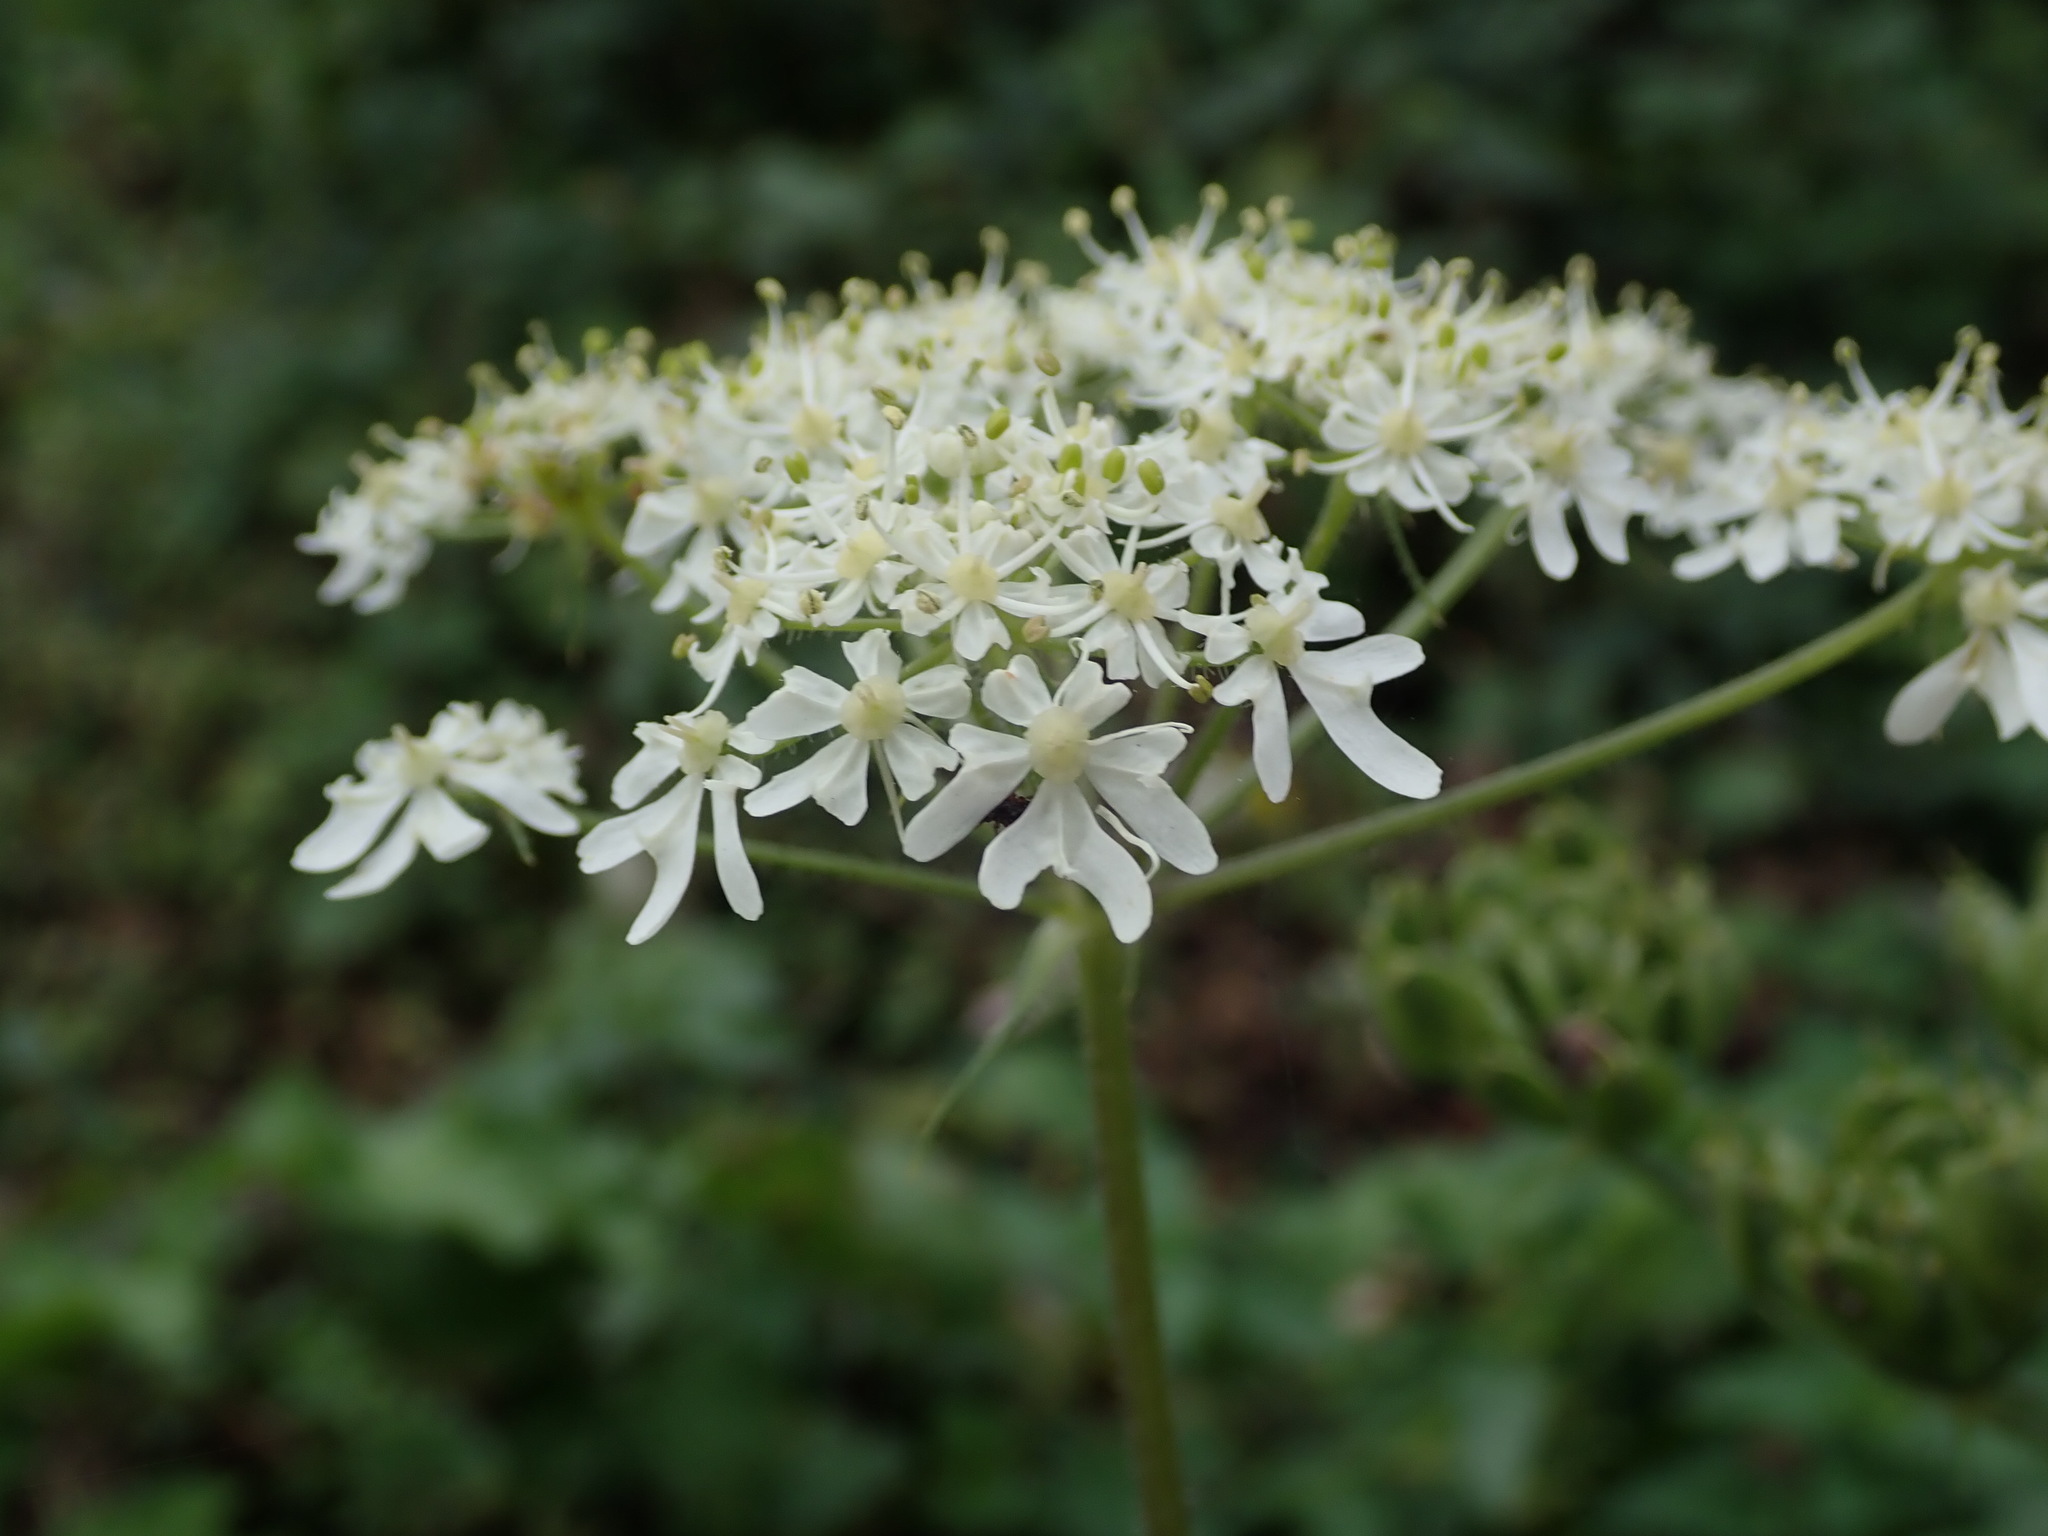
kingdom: Plantae
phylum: Tracheophyta
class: Magnoliopsida
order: Apiales
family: Apiaceae
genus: Heracleum
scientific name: Heracleum sphondylium
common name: Hogweed
